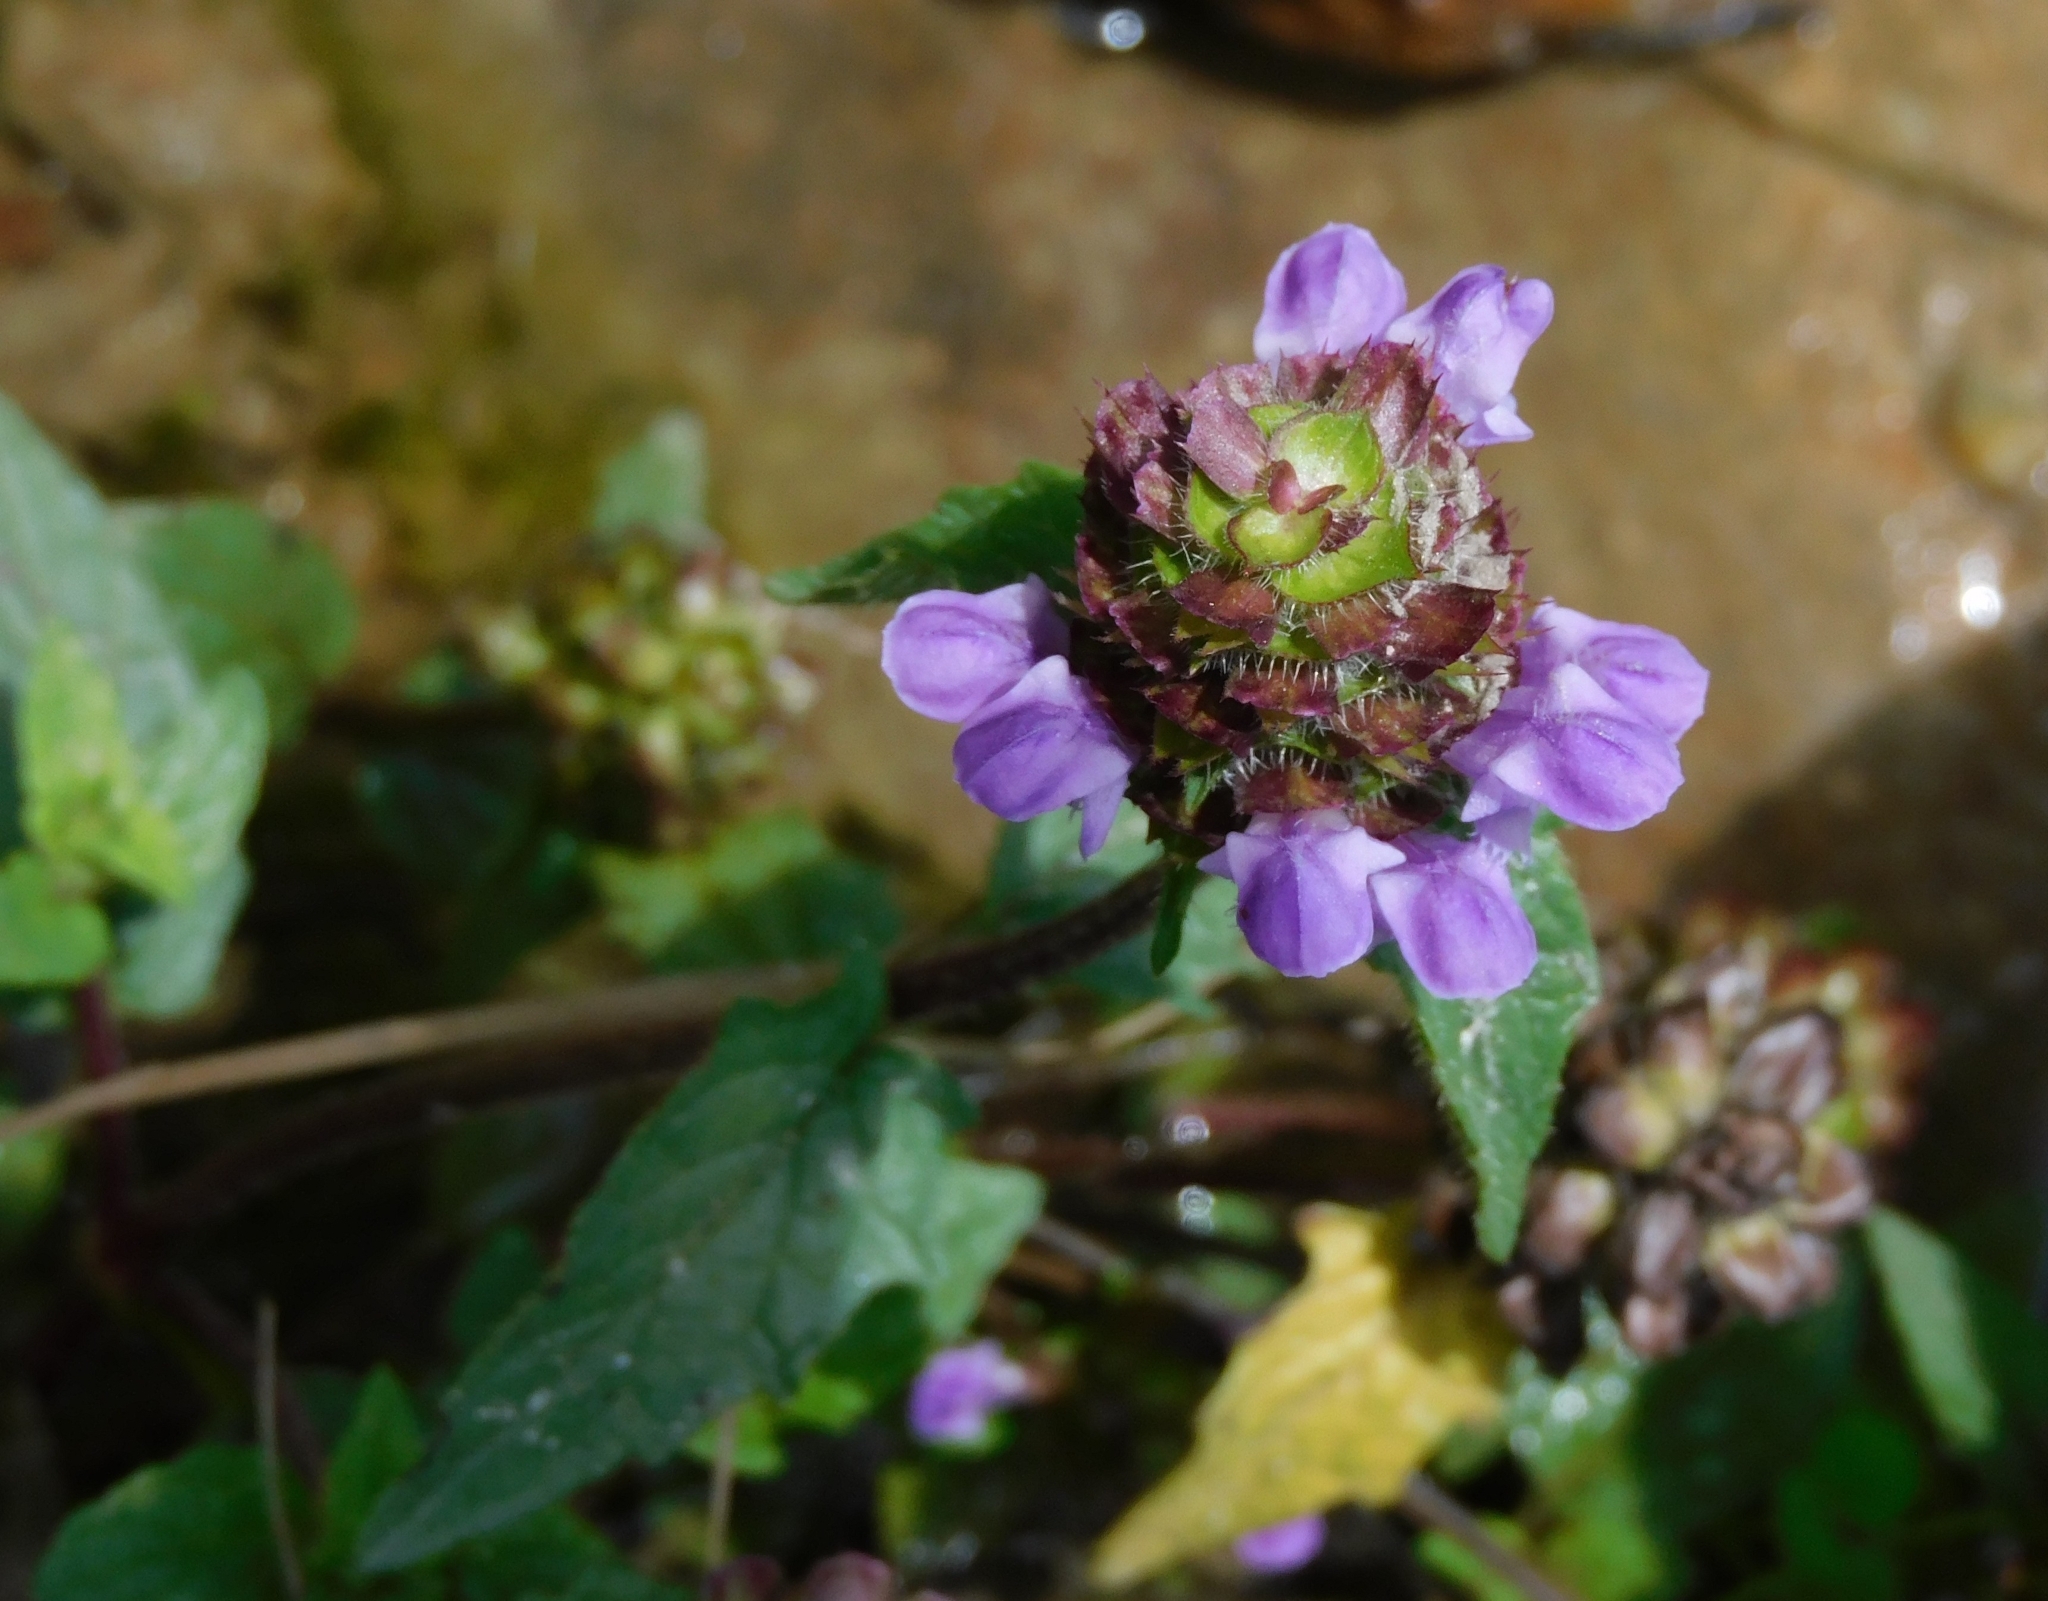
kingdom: Plantae
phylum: Tracheophyta
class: Magnoliopsida
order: Lamiales
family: Lamiaceae
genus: Prunella
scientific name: Prunella vulgaris
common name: Heal-all
